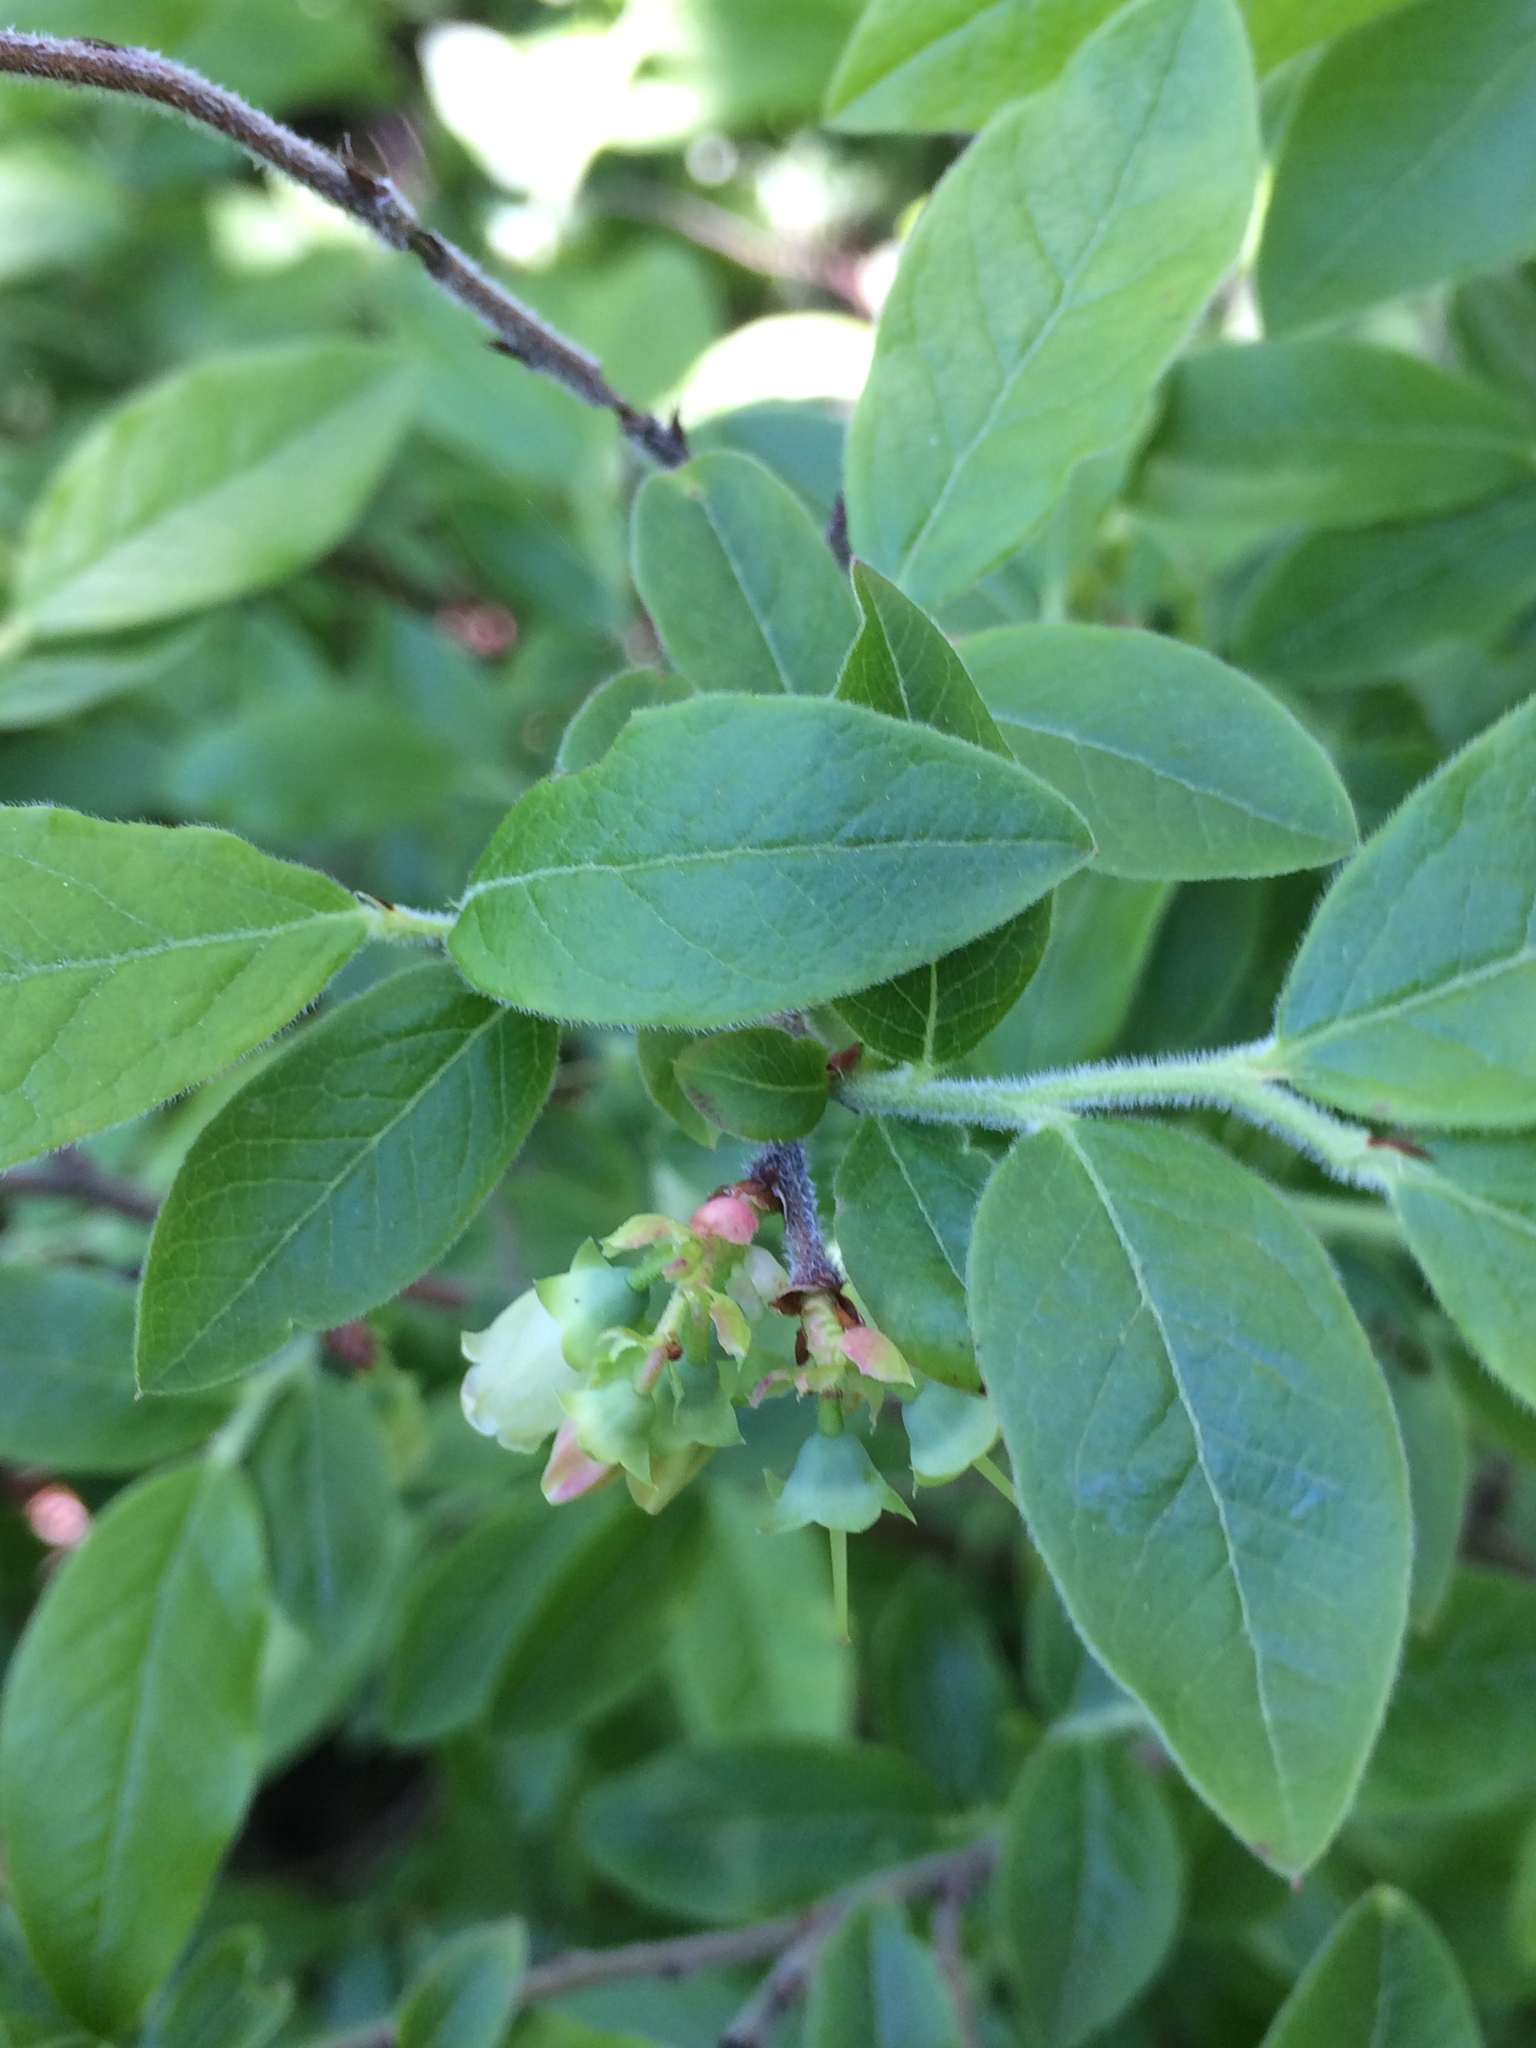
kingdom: Plantae
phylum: Tracheophyta
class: Magnoliopsida
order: Ericales
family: Ericaceae
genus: Vaccinium
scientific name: Vaccinium myrtilloides
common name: Canada blueberry
